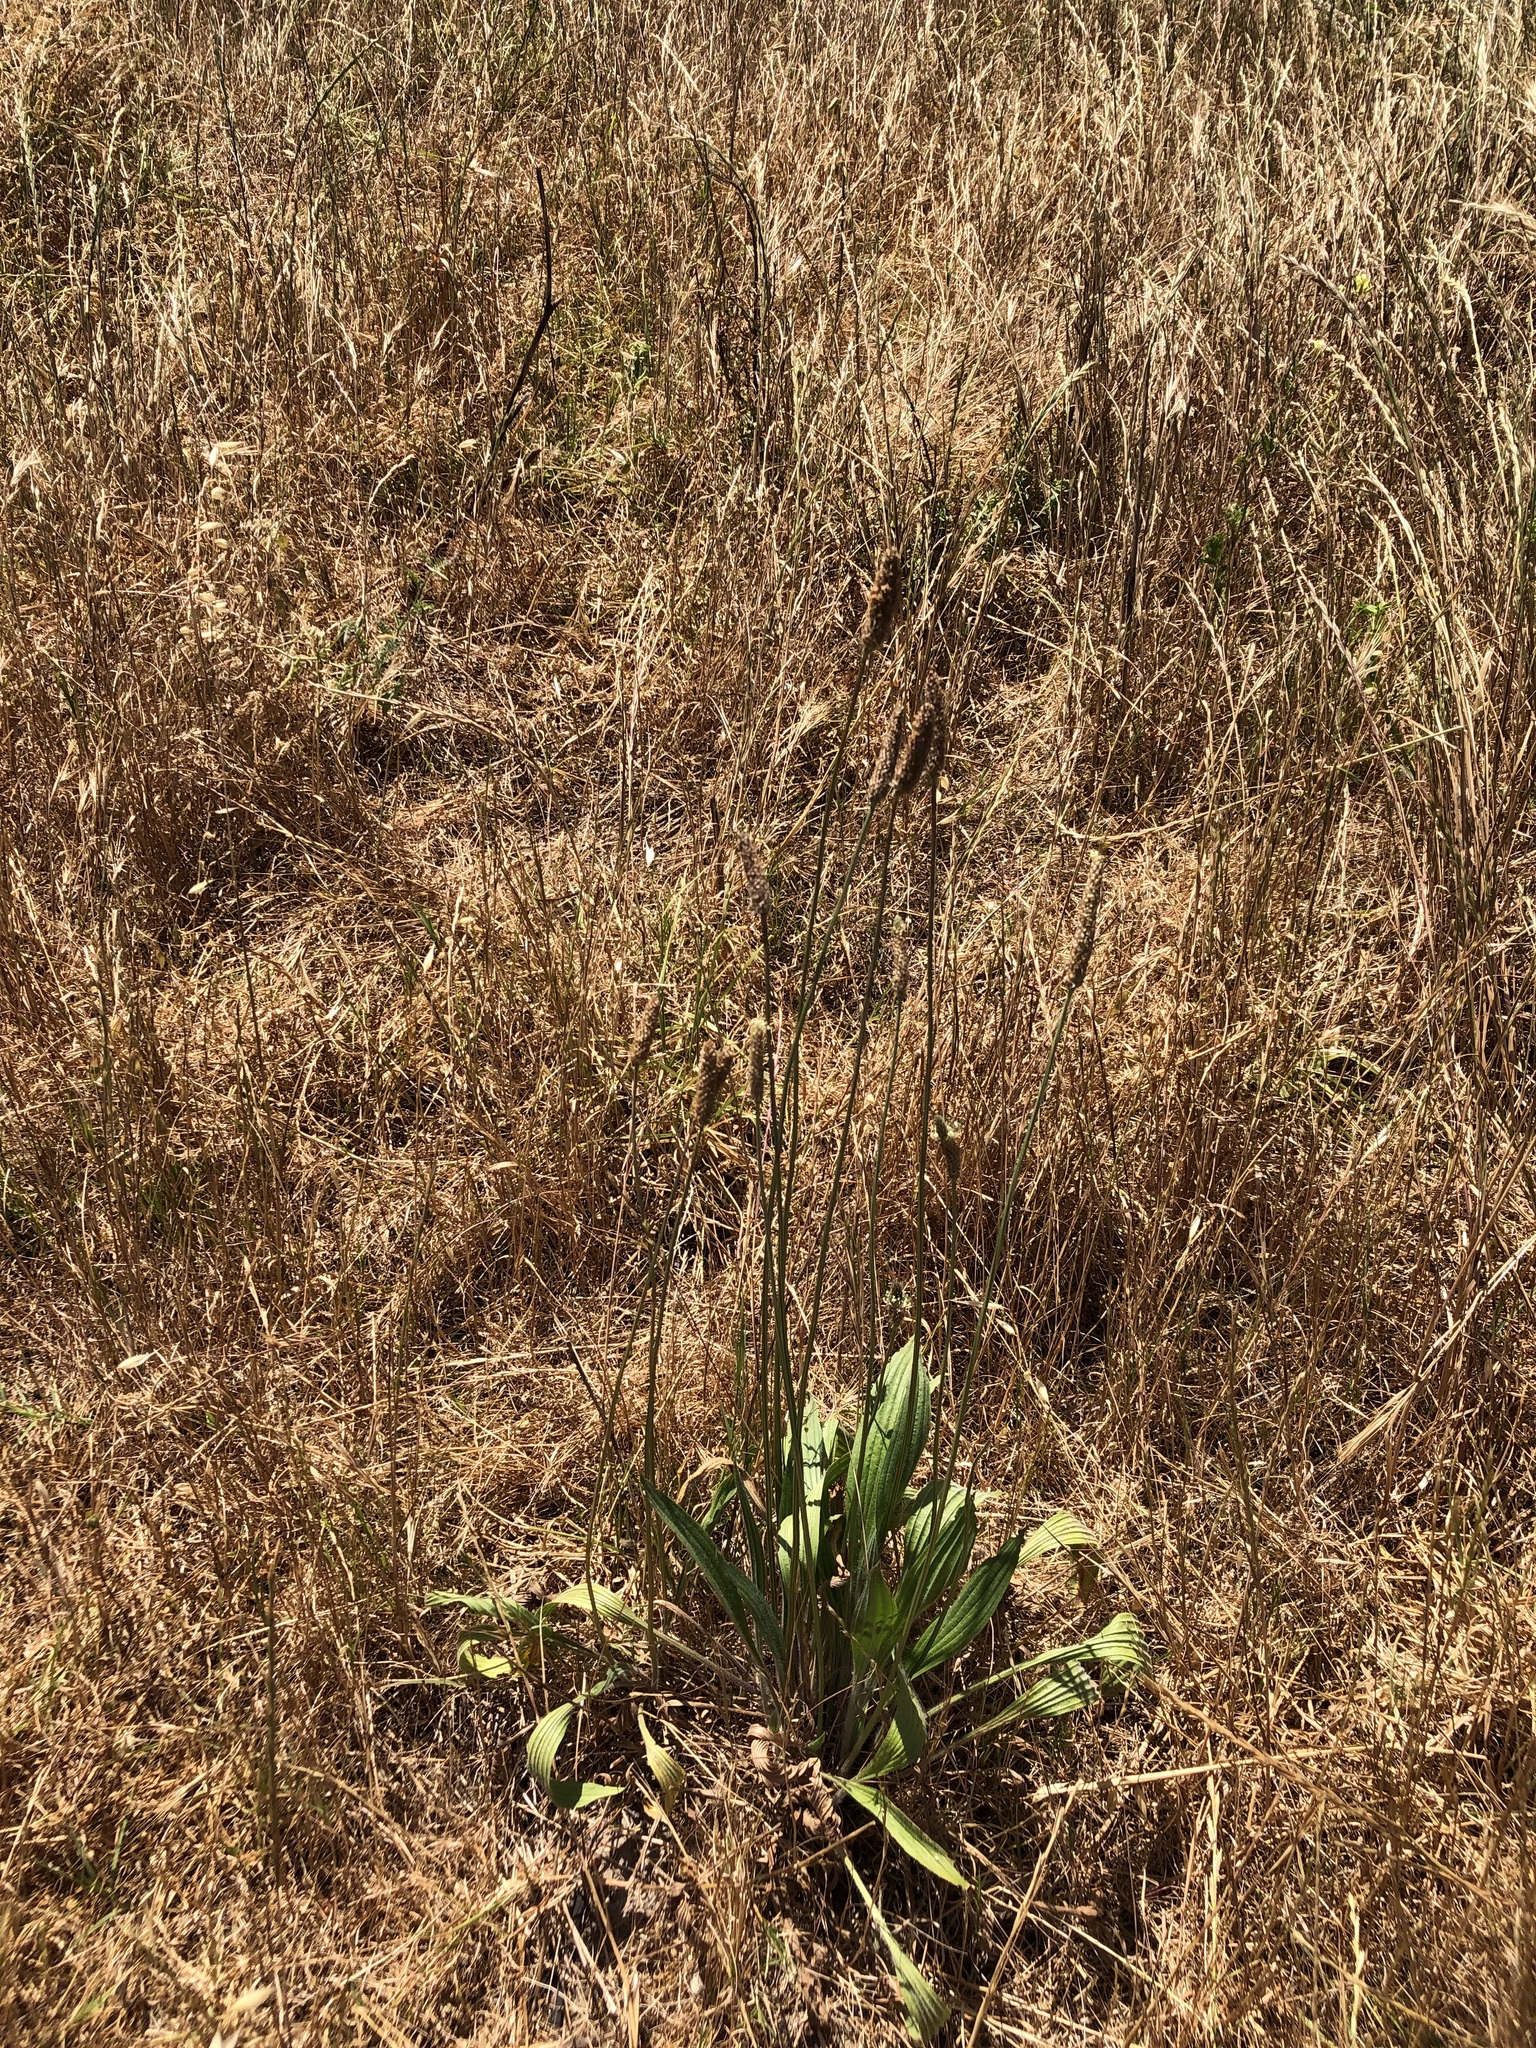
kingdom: Plantae
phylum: Tracheophyta
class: Magnoliopsida
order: Lamiales
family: Plantaginaceae
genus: Plantago
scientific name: Plantago lanceolata
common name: Ribwort plantain
